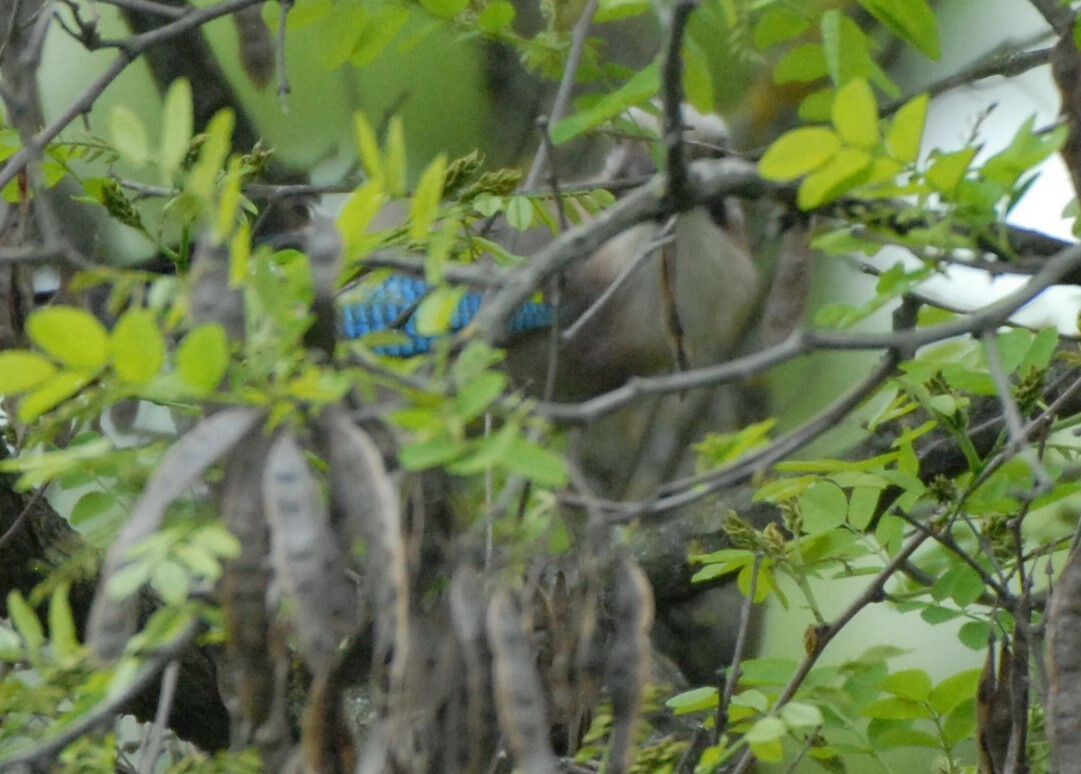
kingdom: Animalia
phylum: Chordata
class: Aves
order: Passeriformes
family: Corvidae
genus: Garrulus
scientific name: Garrulus glandarius
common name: Eurasian jay
